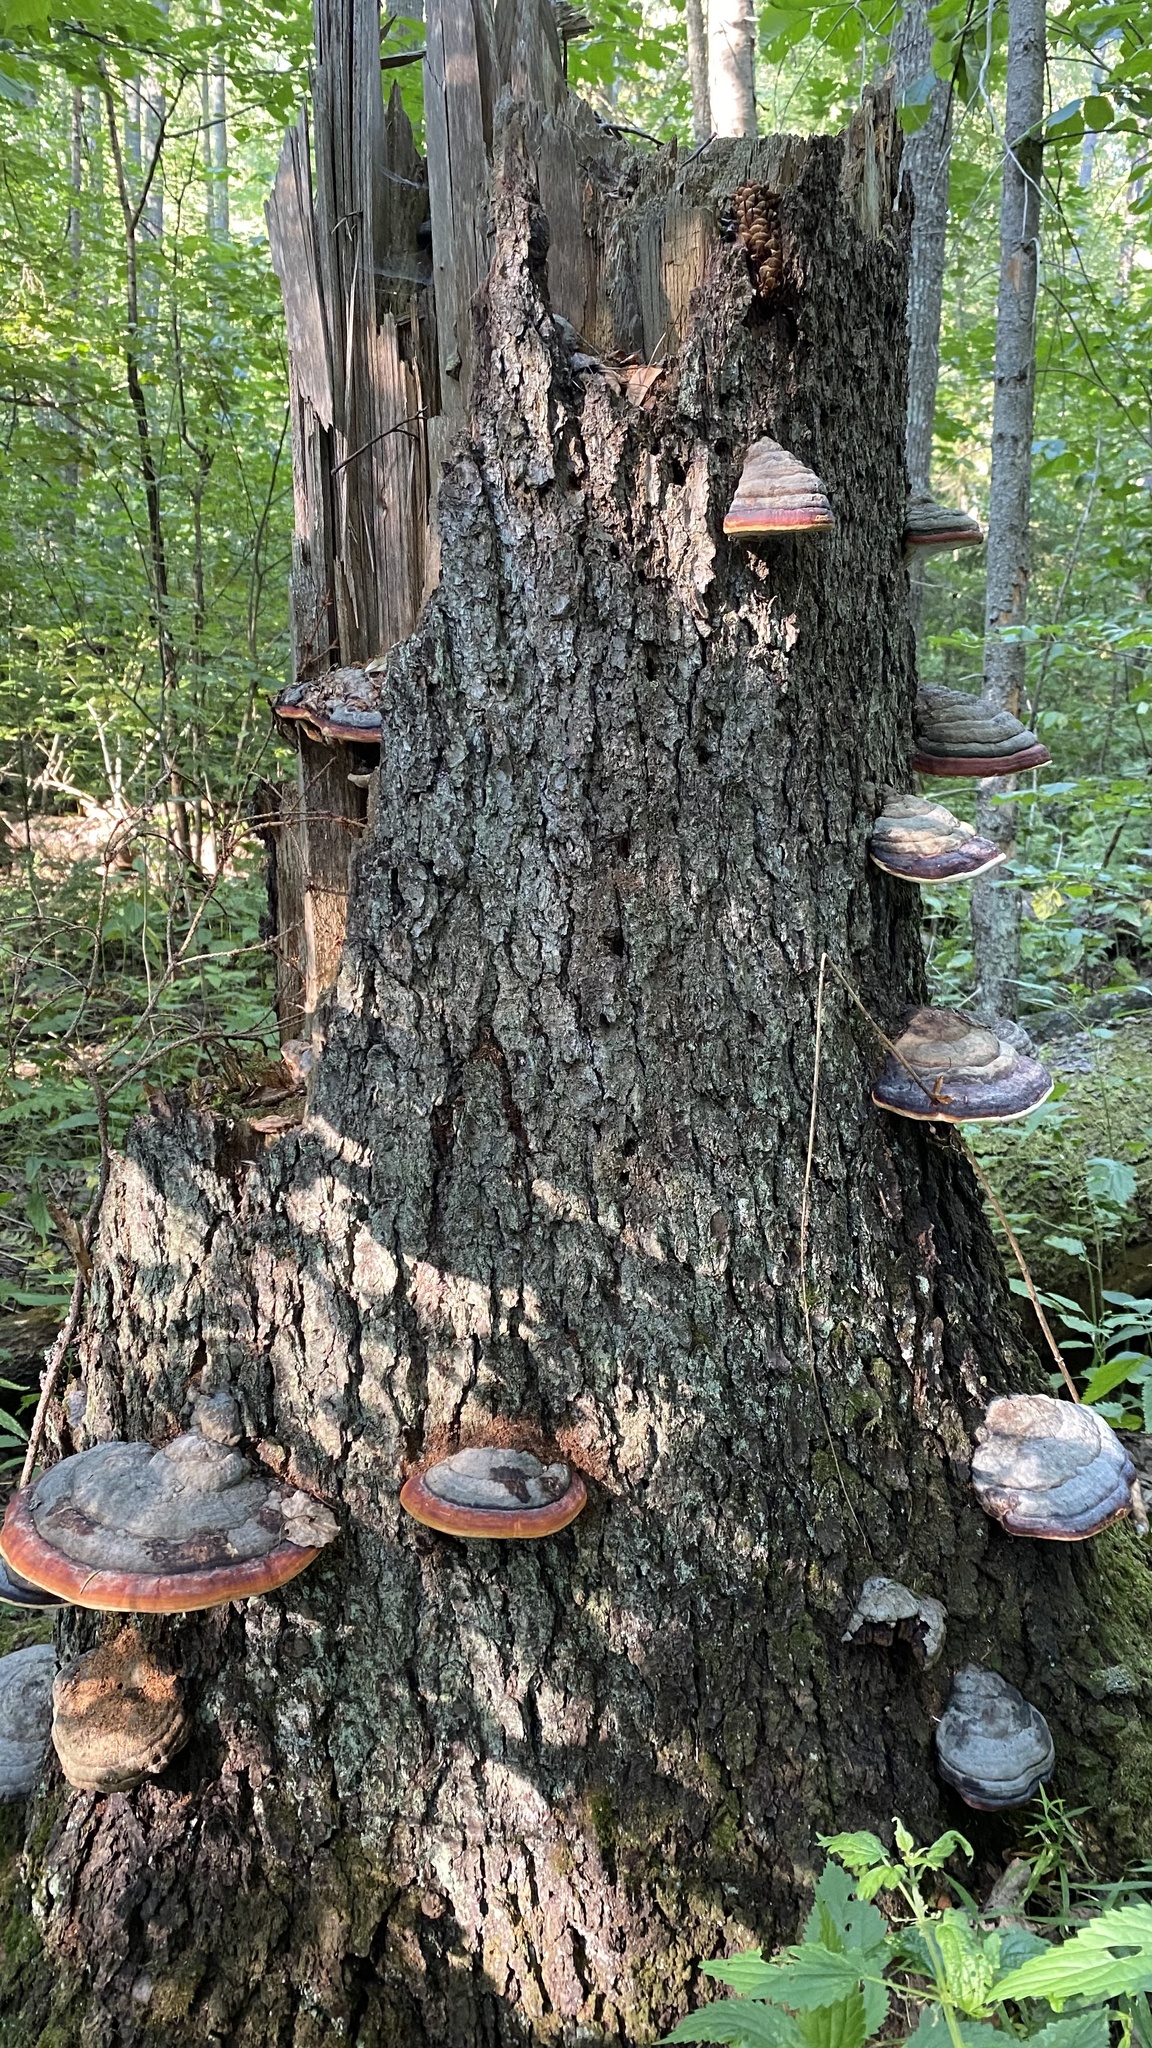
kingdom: Fungi
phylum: Basidiomycota
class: Agaricomycetes
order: Polyporales
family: Fomitopsidaceae
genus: Fomitopsis
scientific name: Fomitopsis pinicola
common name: Red-belted bracket
